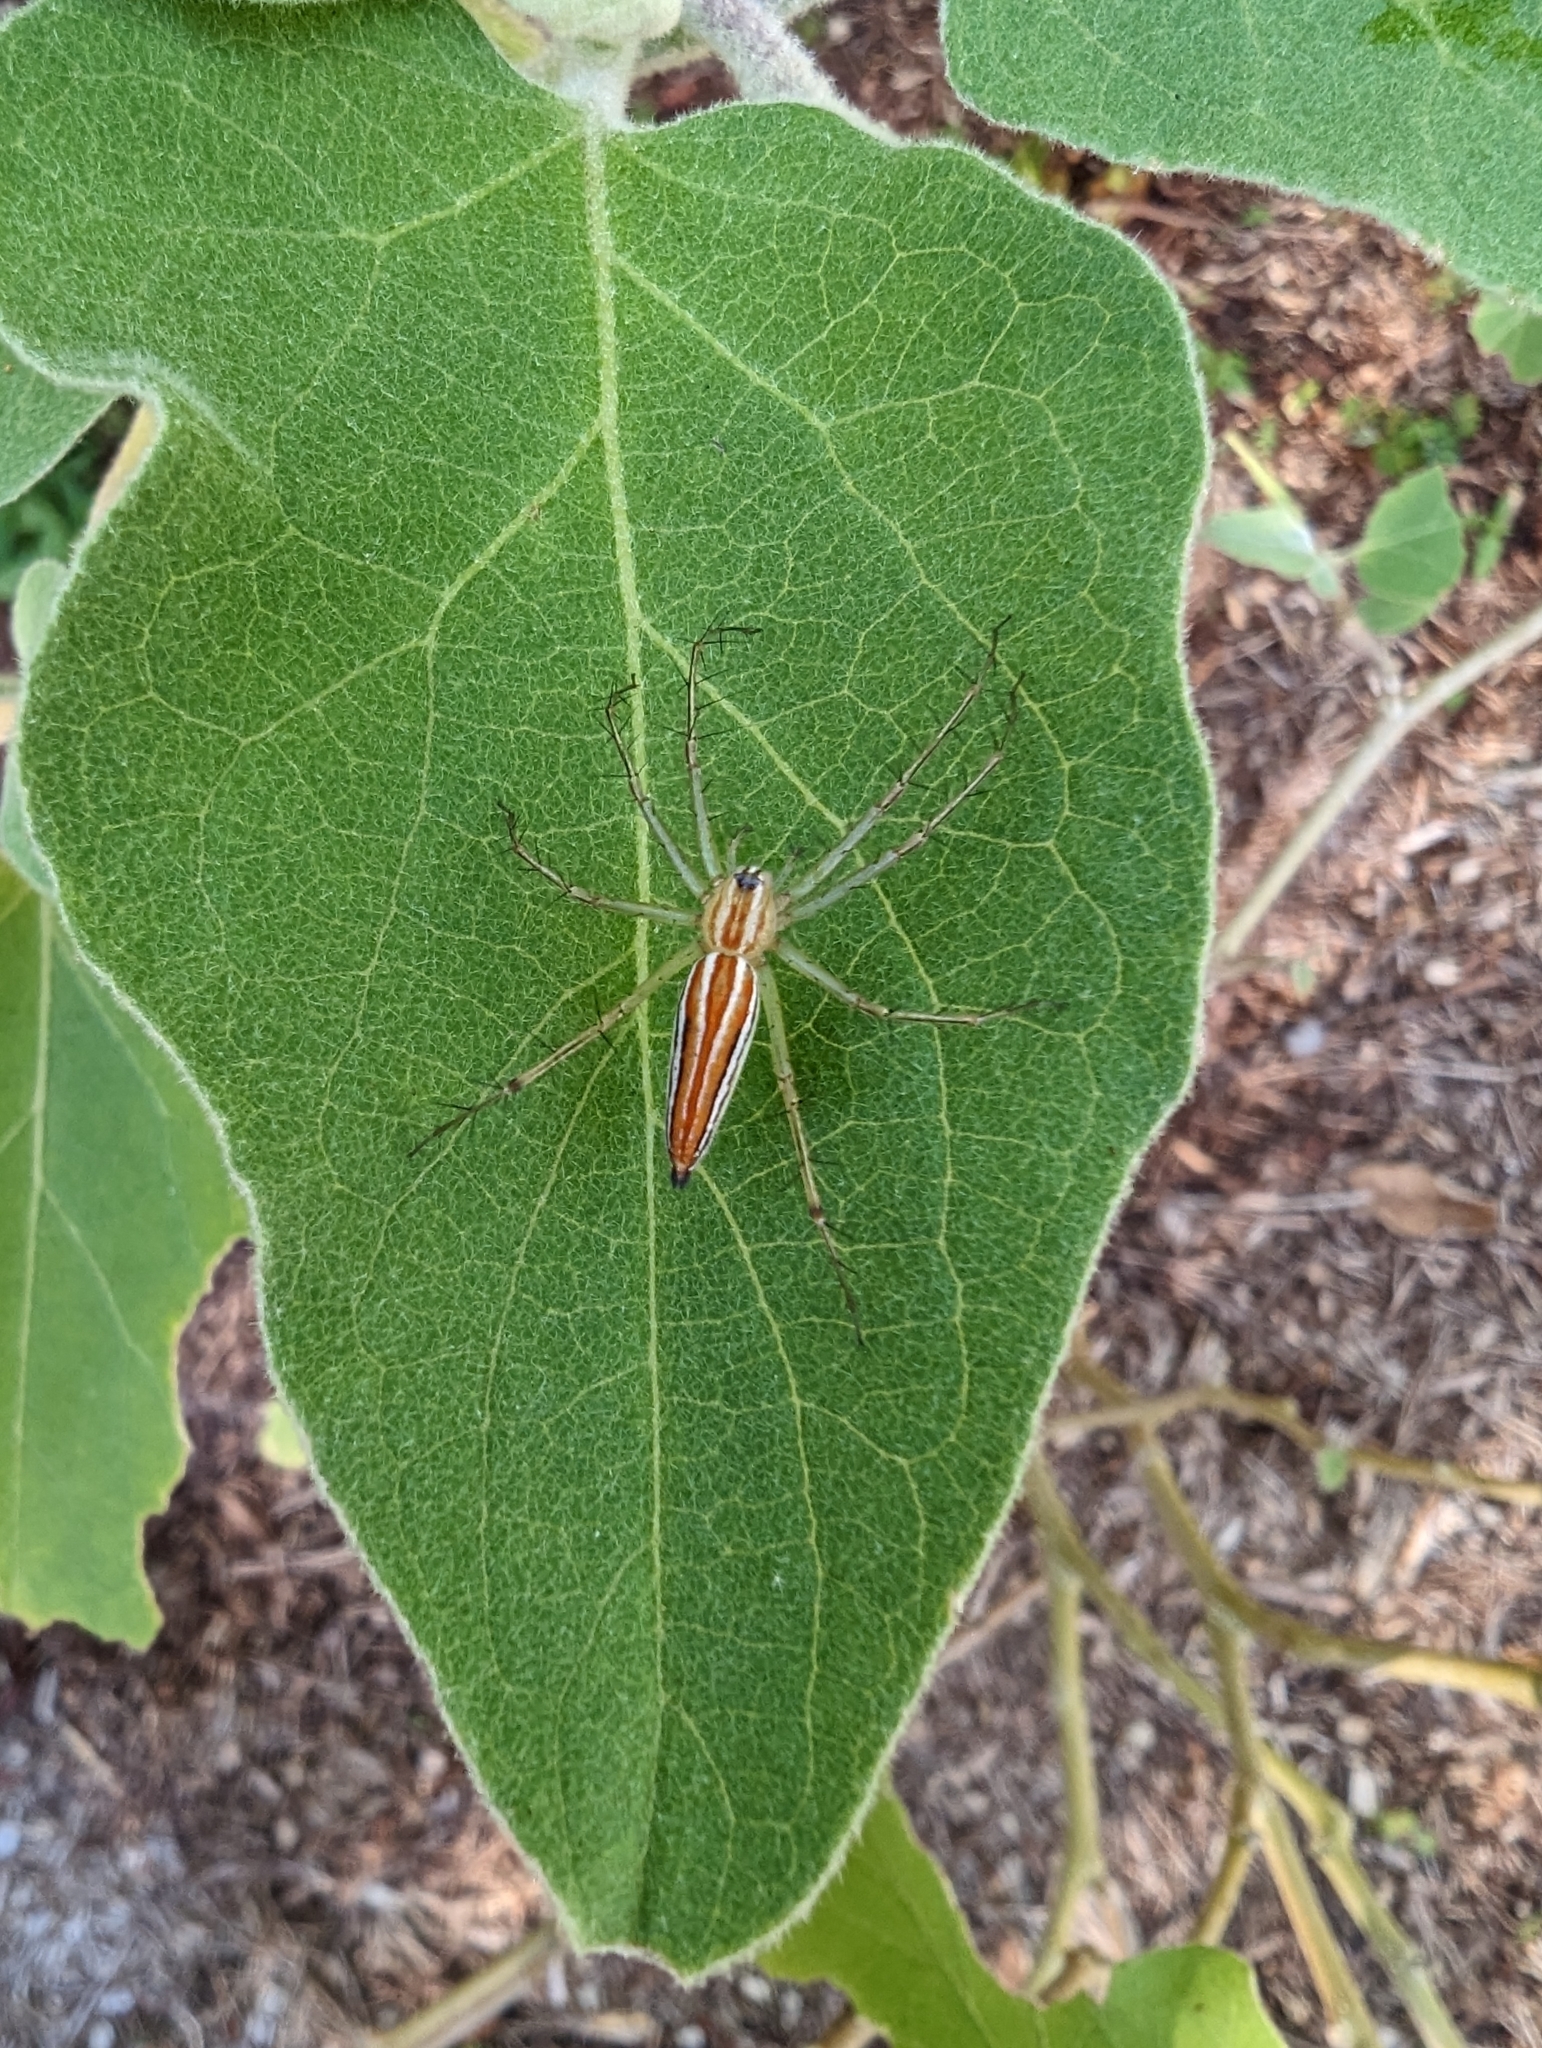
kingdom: Animalia
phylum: Arthropoda
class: Arachnida
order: Araneae
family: Oxyopidae
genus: Oxyopes
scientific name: Oxyopes macilentus
